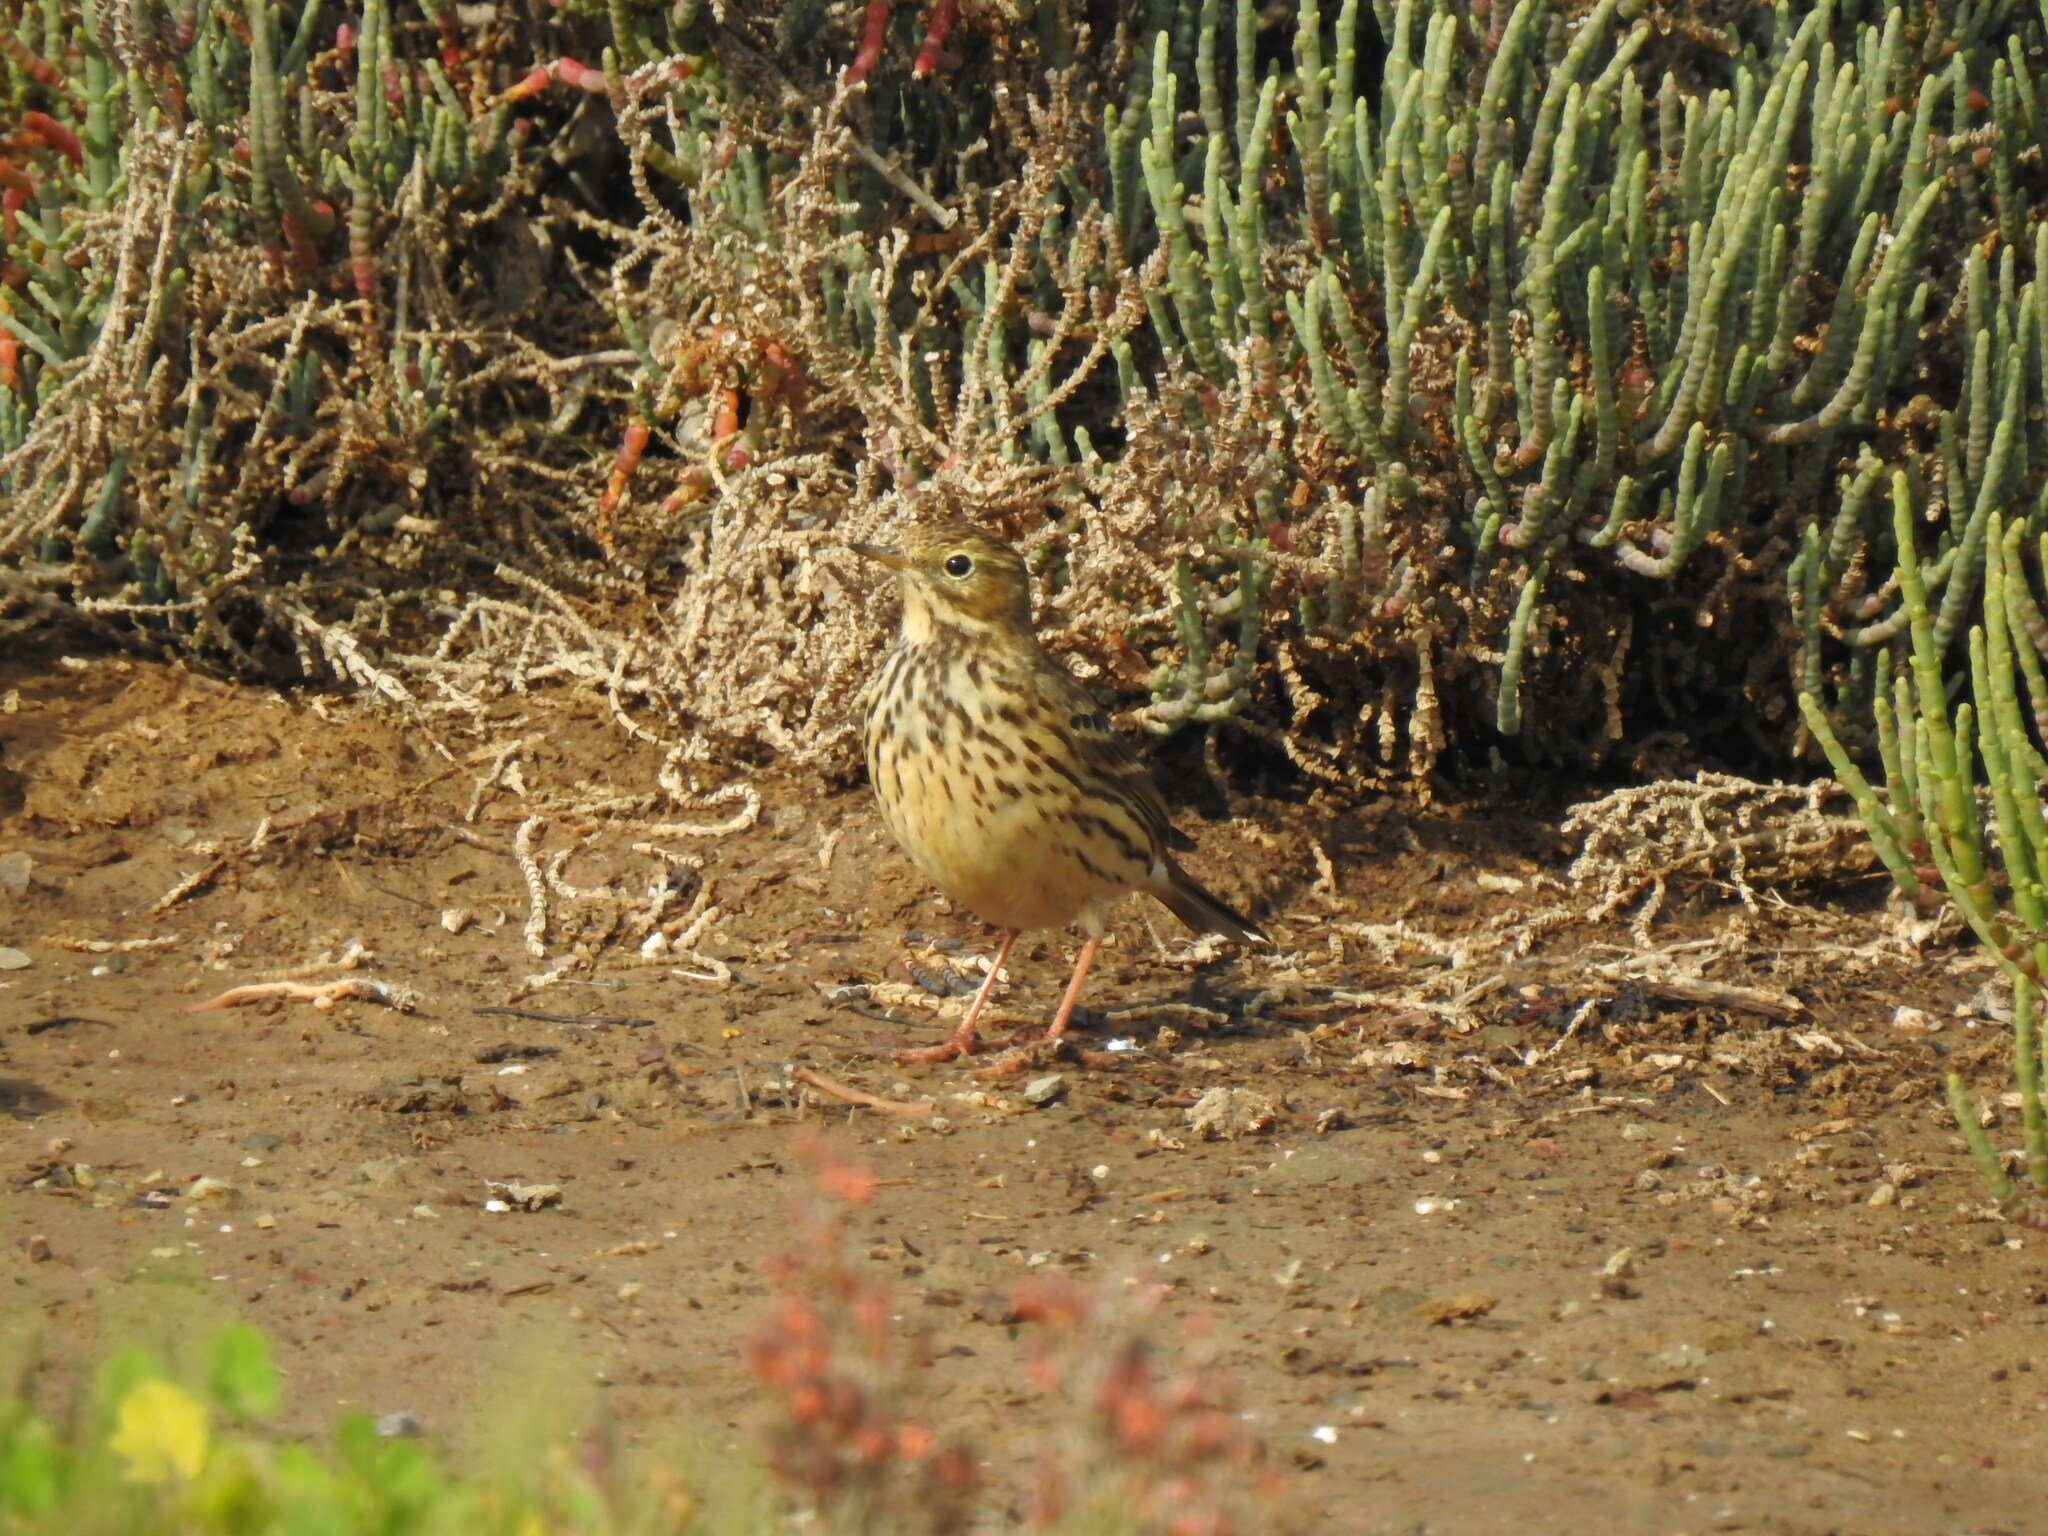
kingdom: Animalia
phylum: Chordata
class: Aves
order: Passeriformes
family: Motacillidae
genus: Anthus
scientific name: Anthus pratensis
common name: Meadow pipit
